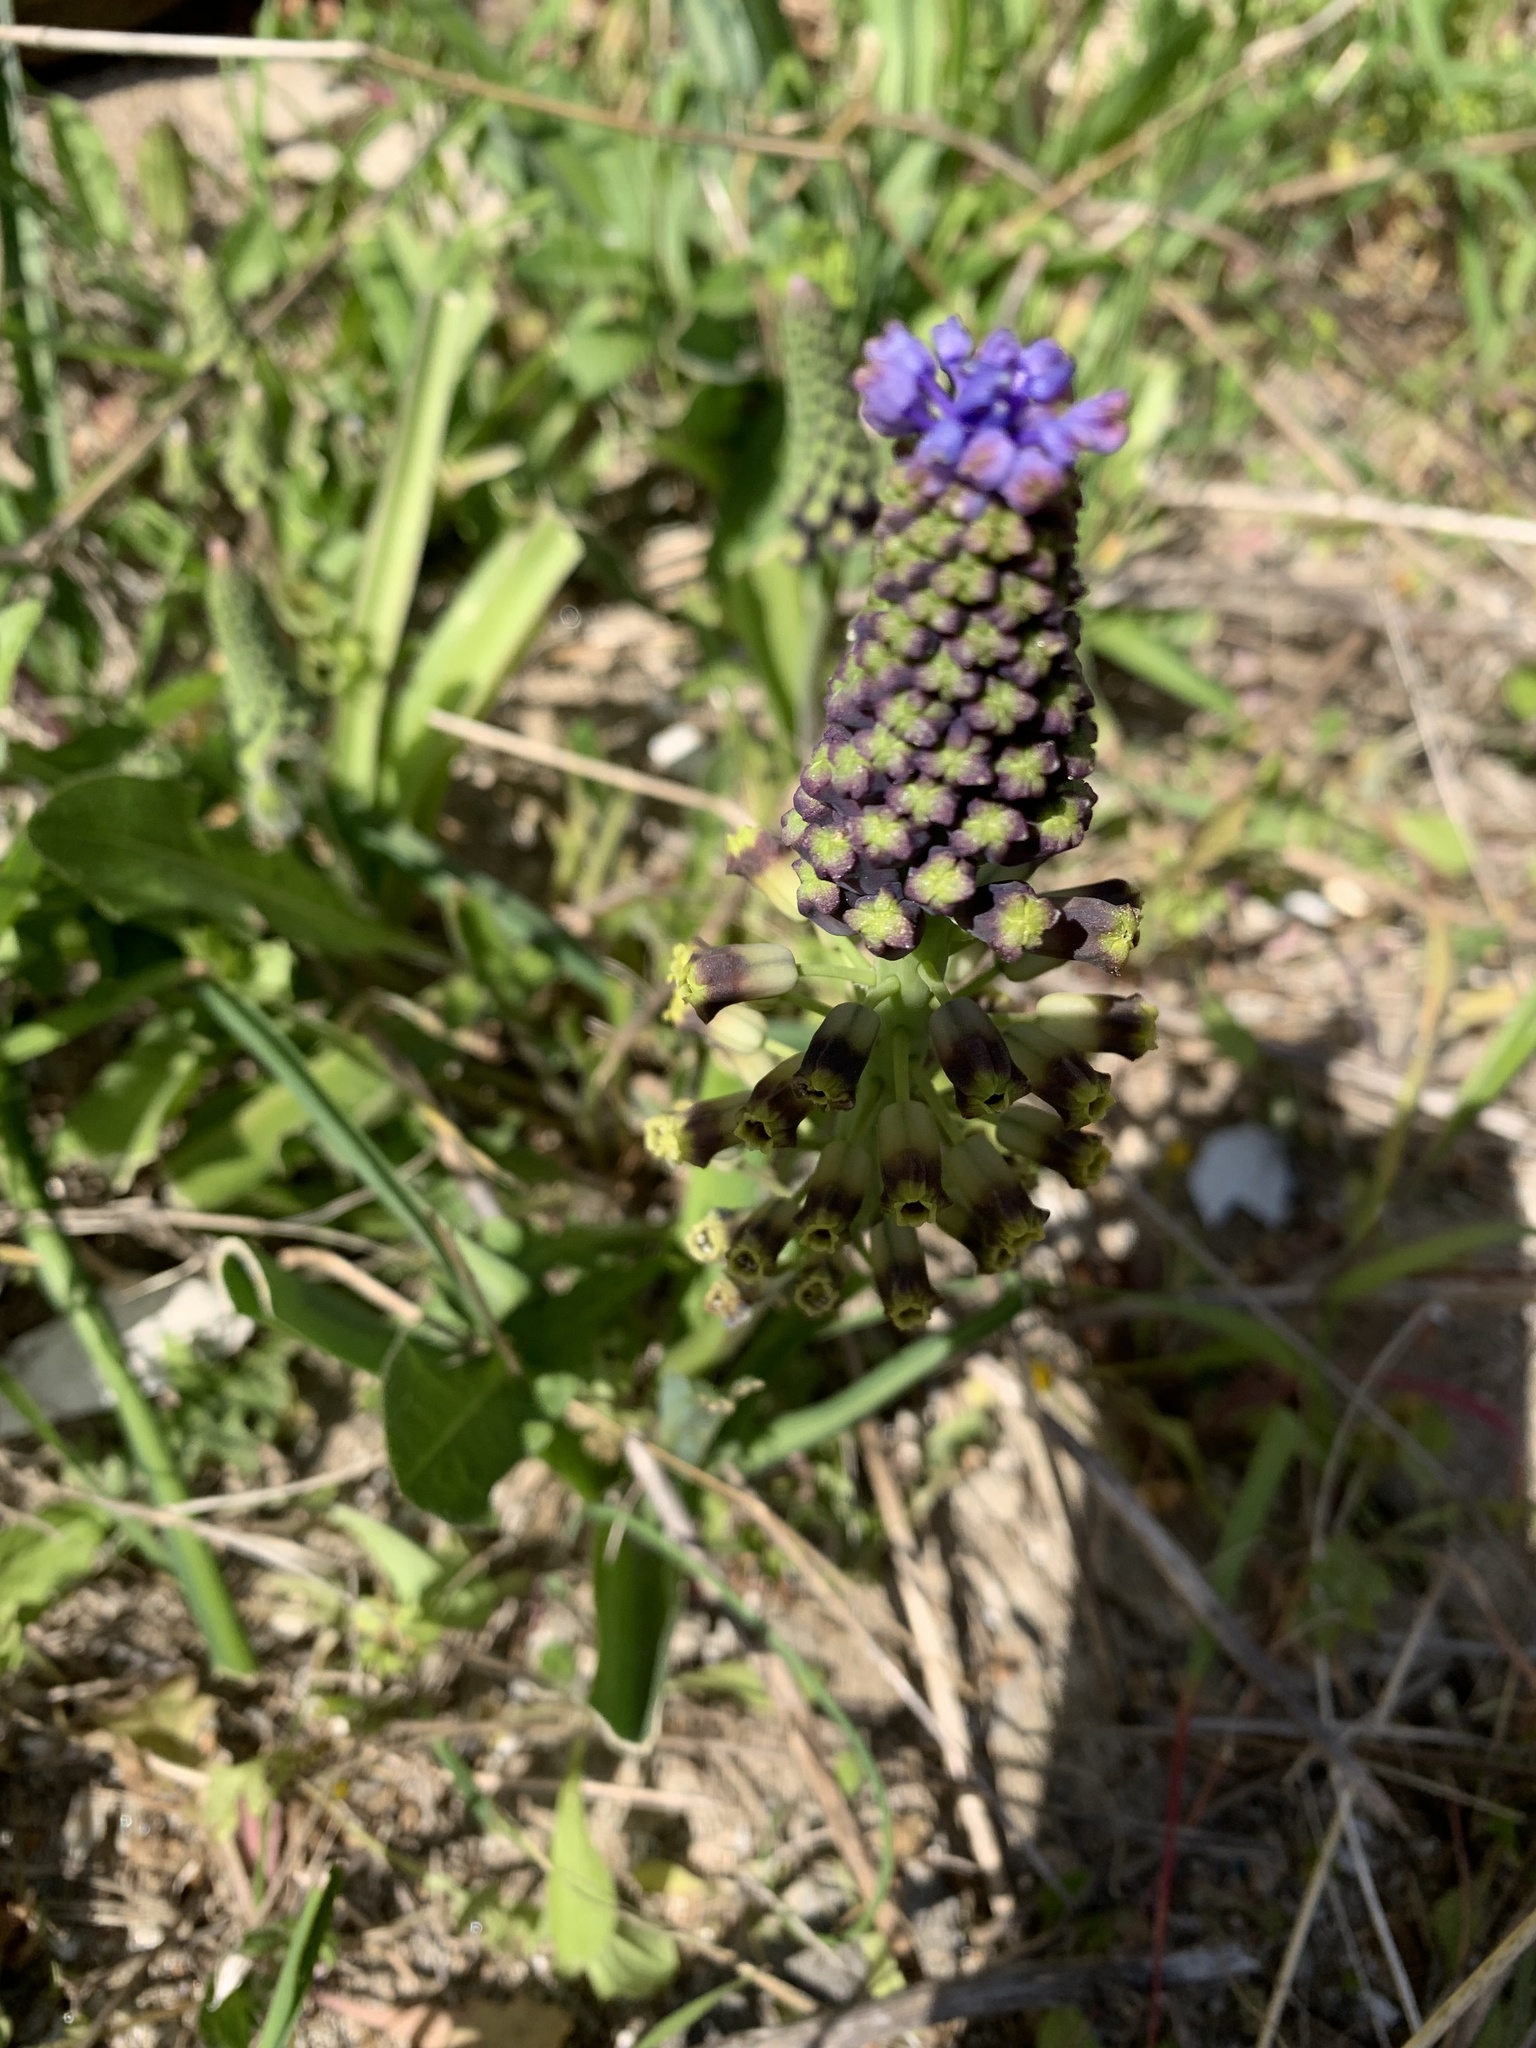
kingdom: Plantae
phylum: Tracheophyta
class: Liliopsida
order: Asparagales
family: Asparagaceae
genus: Muscari
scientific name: Muscari comosum
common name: Tassel hyacinth
